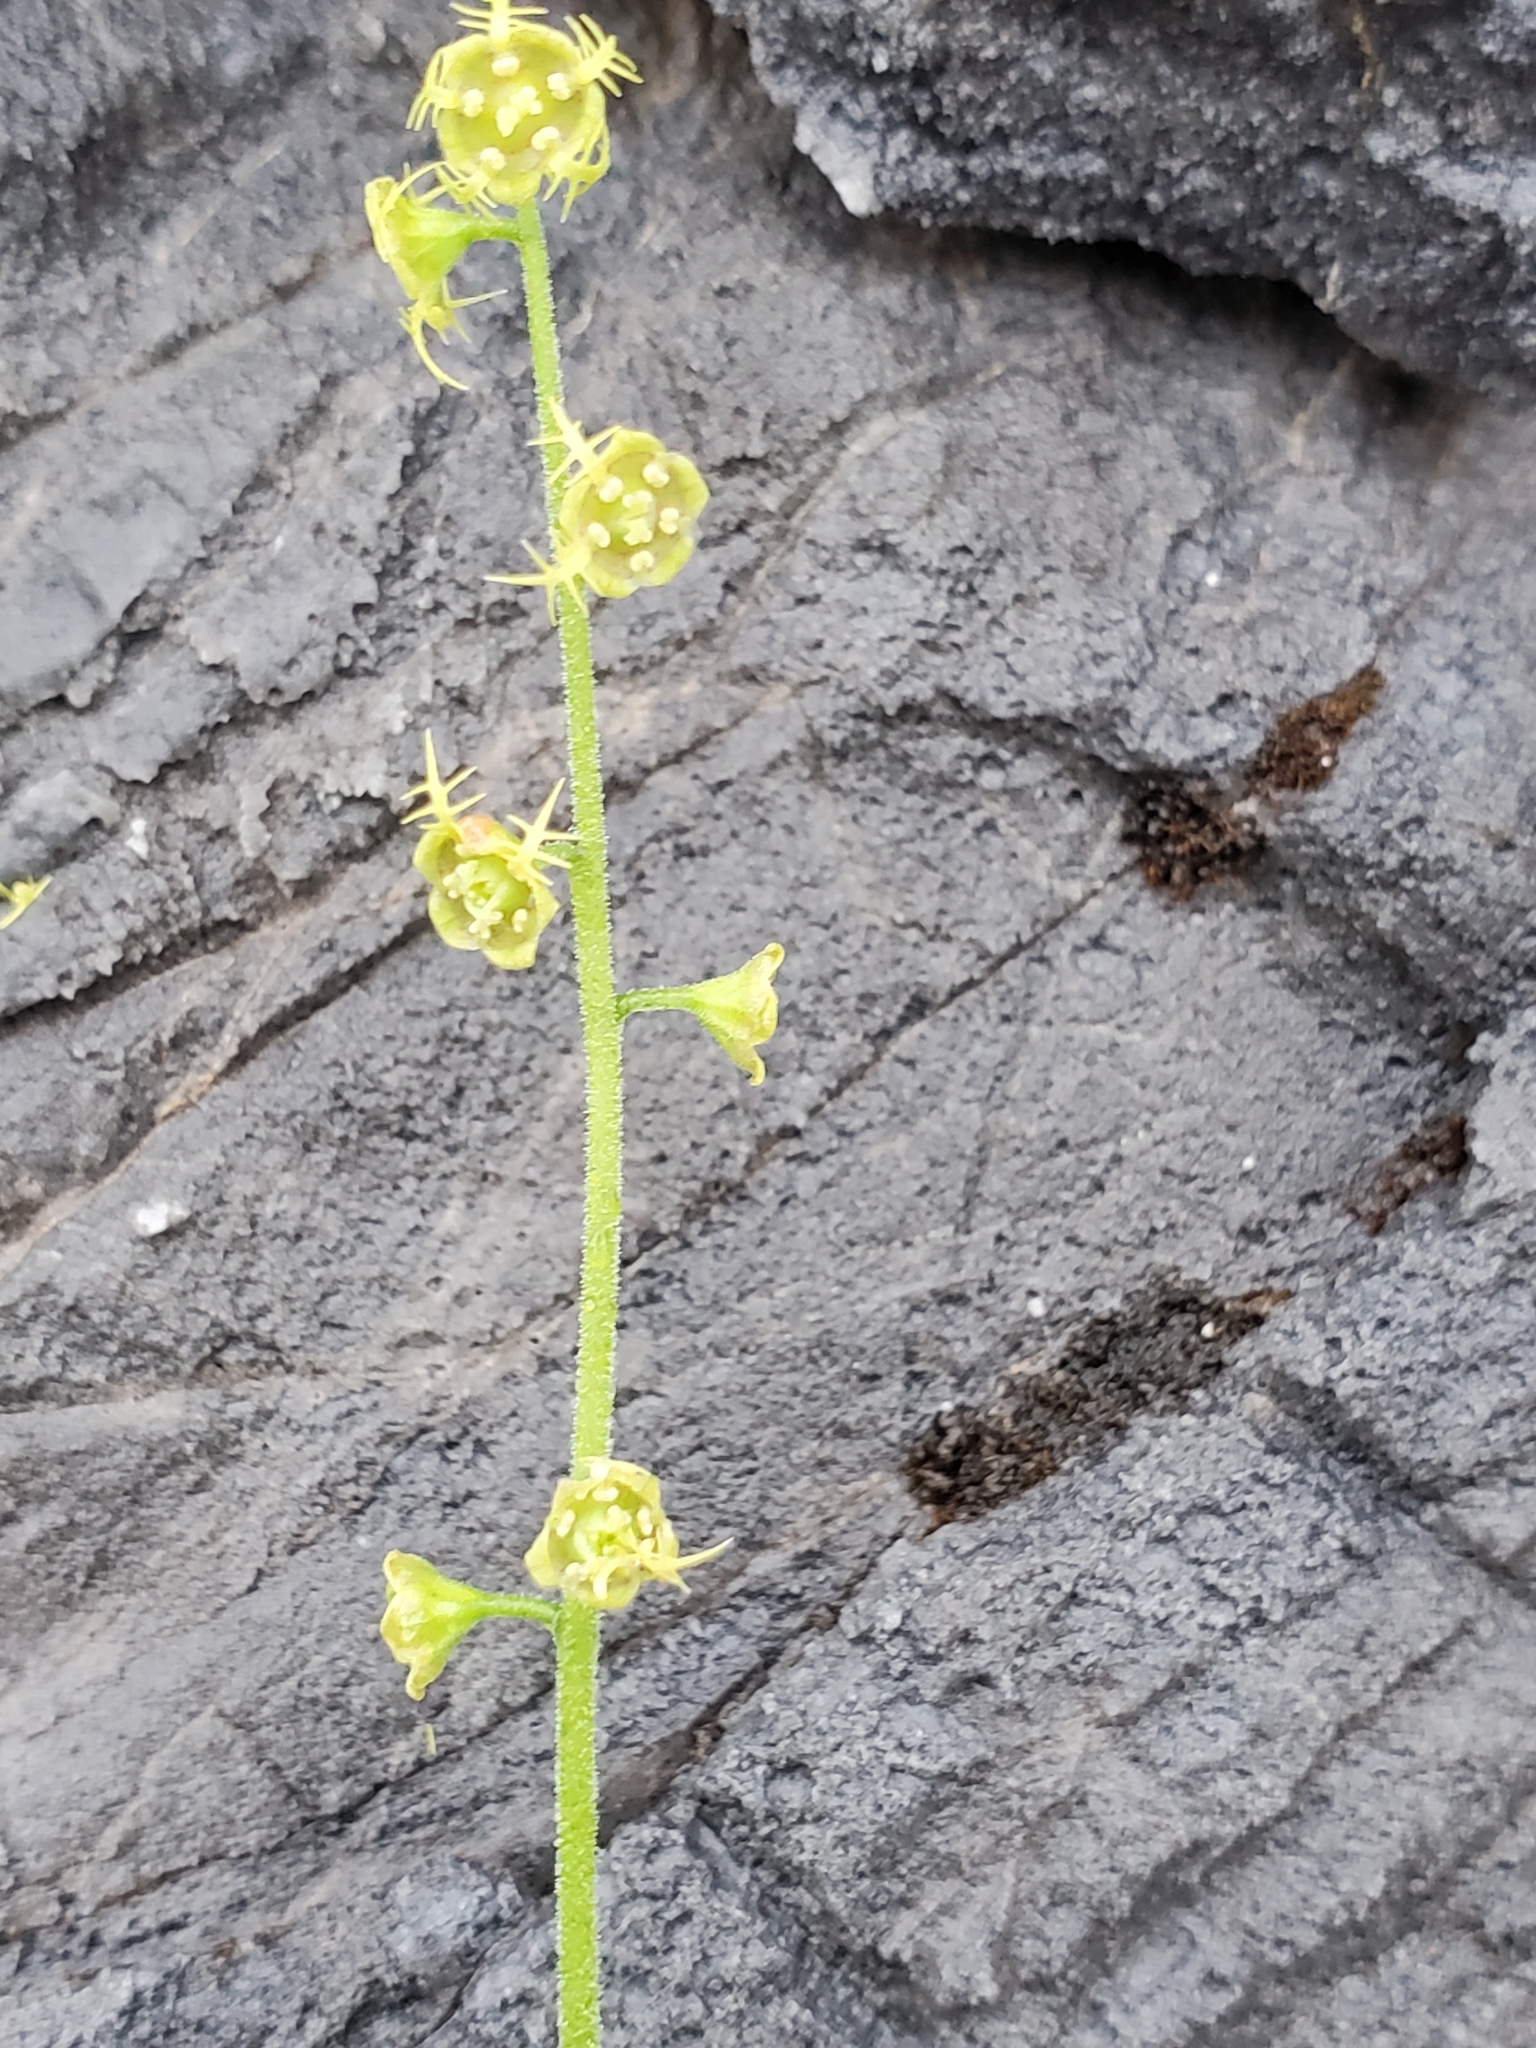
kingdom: Plantae
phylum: Tracheophyta
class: Magnoliopsida
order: Saxifragales
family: Saxifragaceae
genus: Pectiantia
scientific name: Pectiantia pentandra
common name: Alpine bishop's-cap
